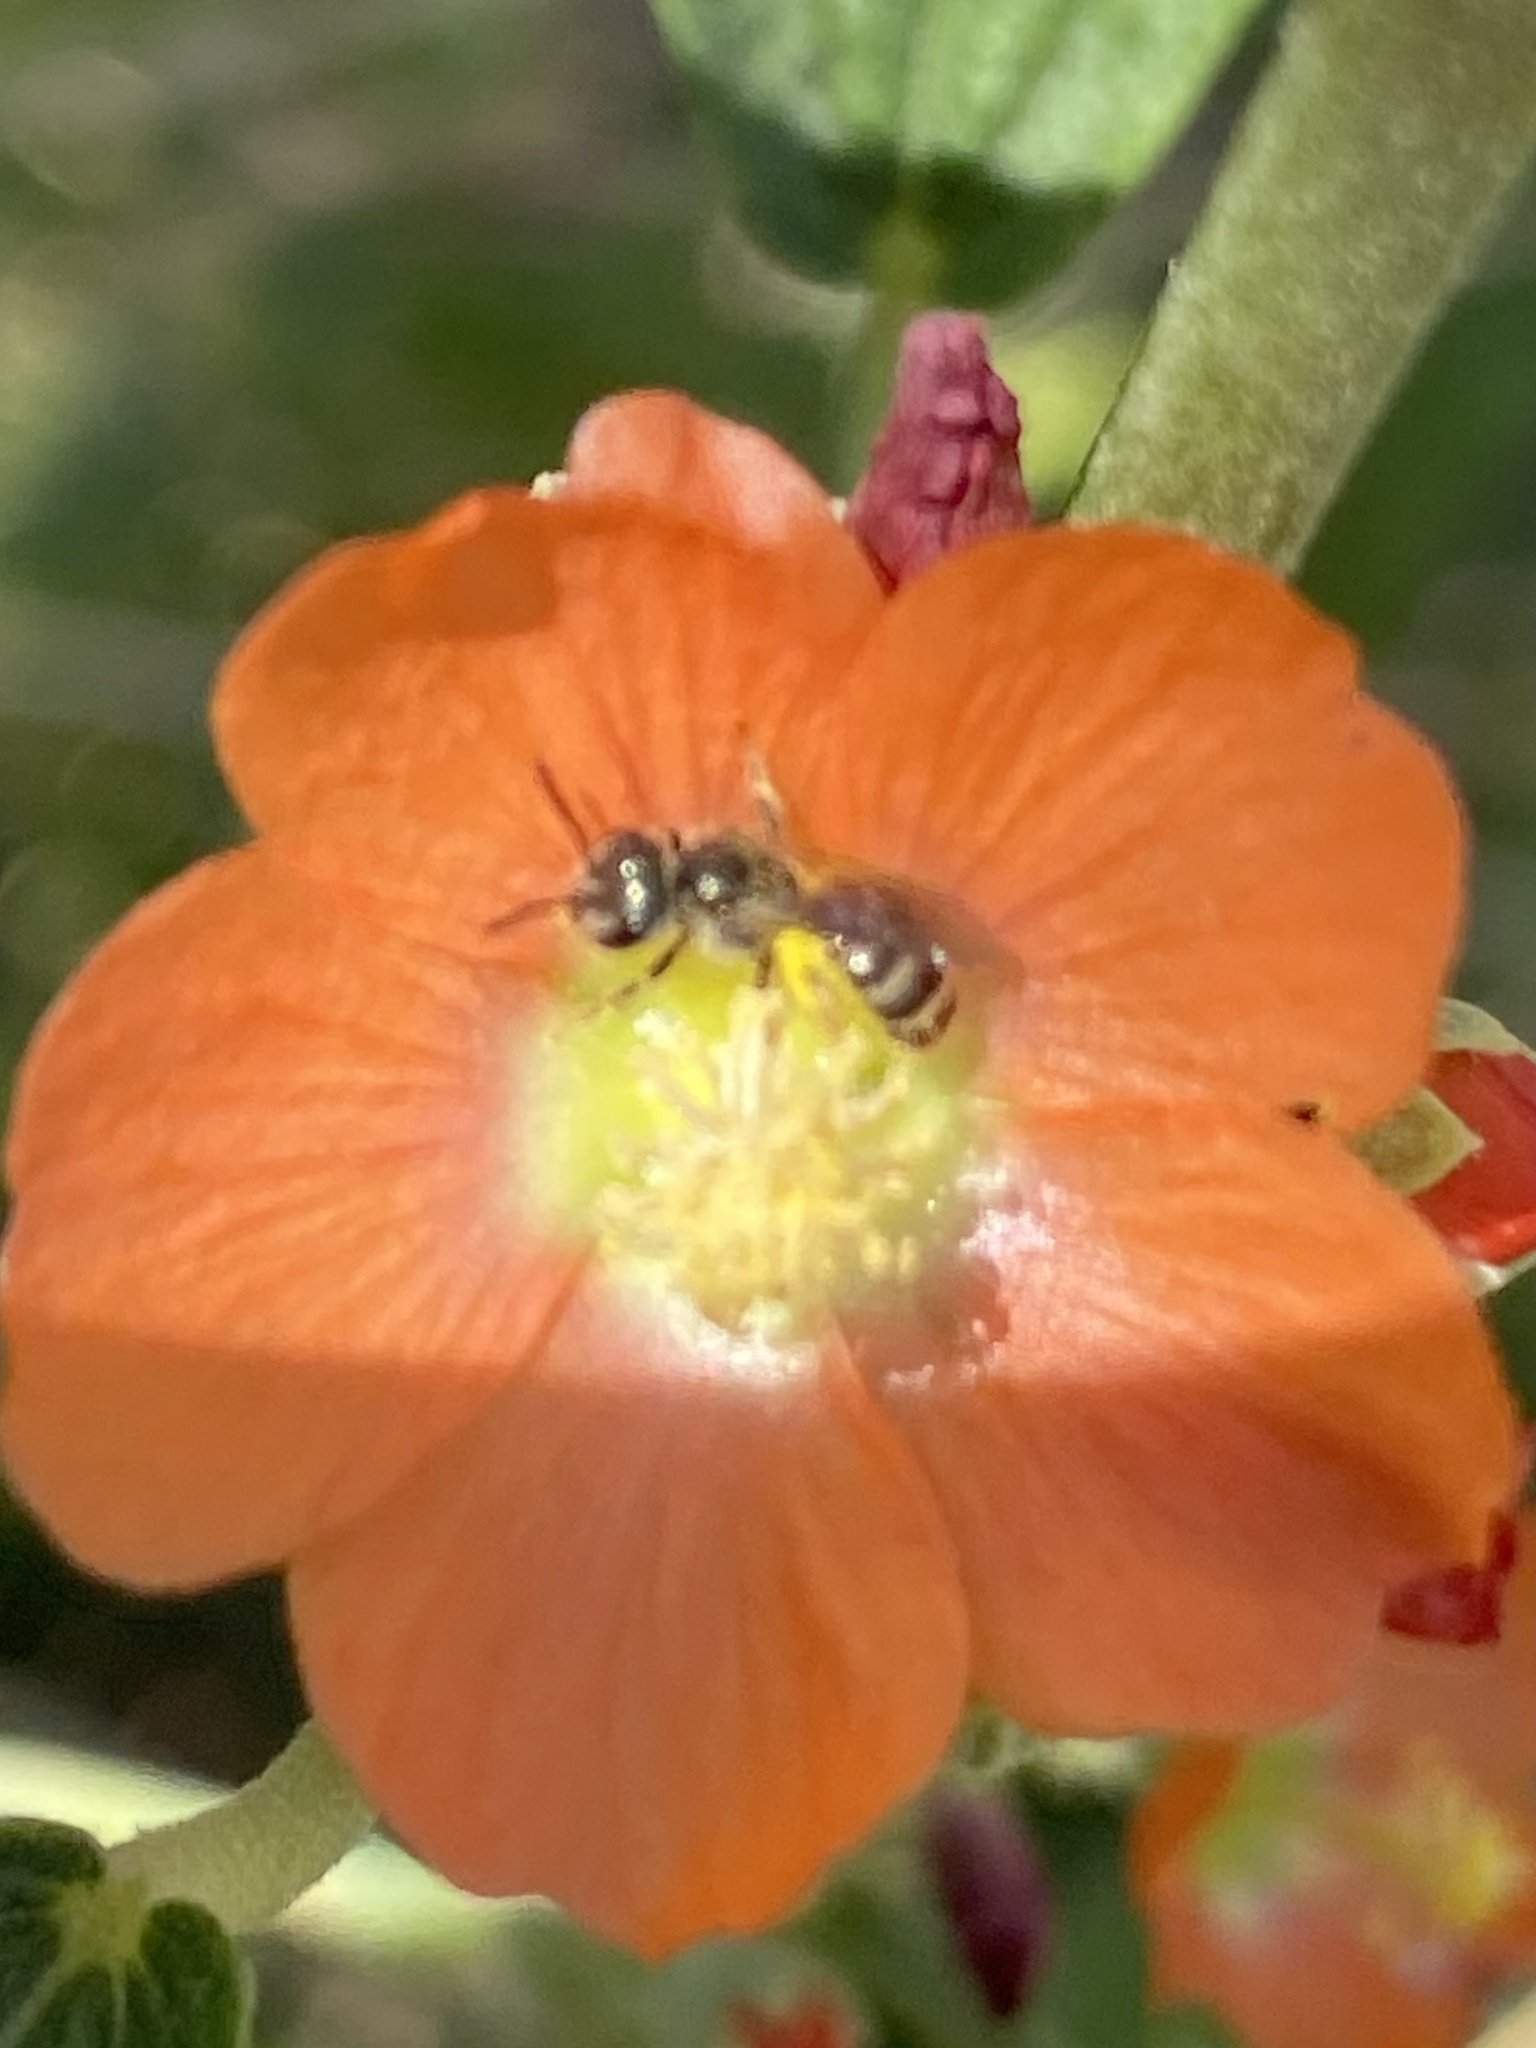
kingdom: Animalia
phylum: Arthropoda
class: Insecta
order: Hymenoptera
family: Halictidae
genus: Halictus
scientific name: Halictus tripartitus
